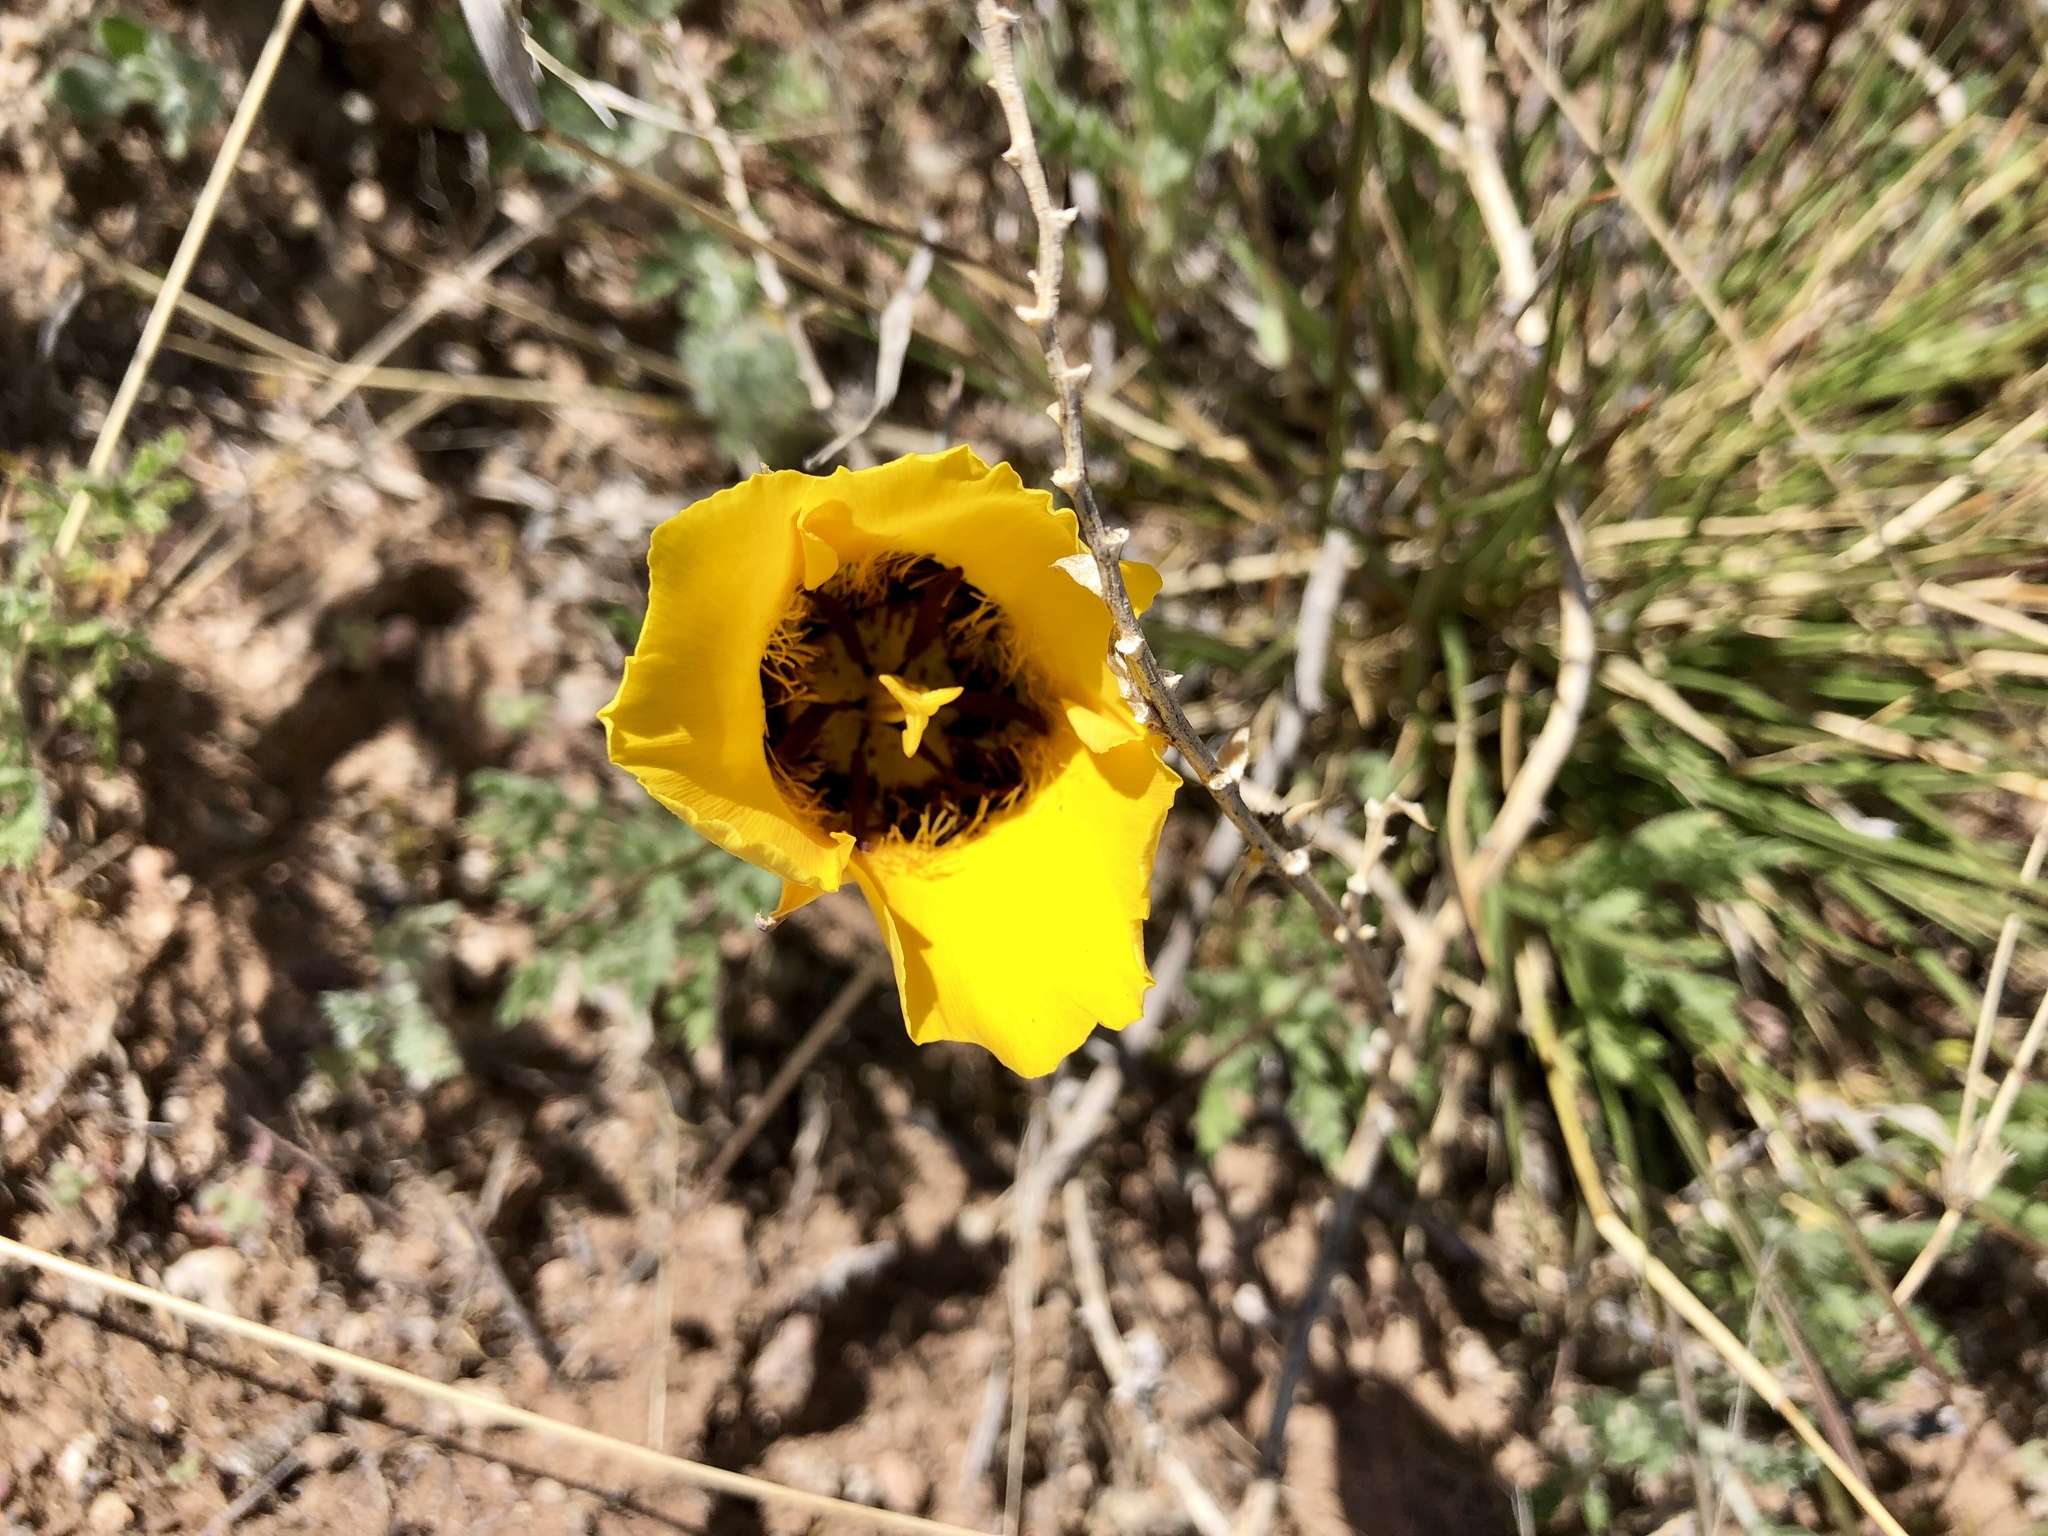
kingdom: Plantae
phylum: Tracheophyta
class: Liliopsida
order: Liliales
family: Liliaceae
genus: Calochortus
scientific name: Calochortus kennedyi
